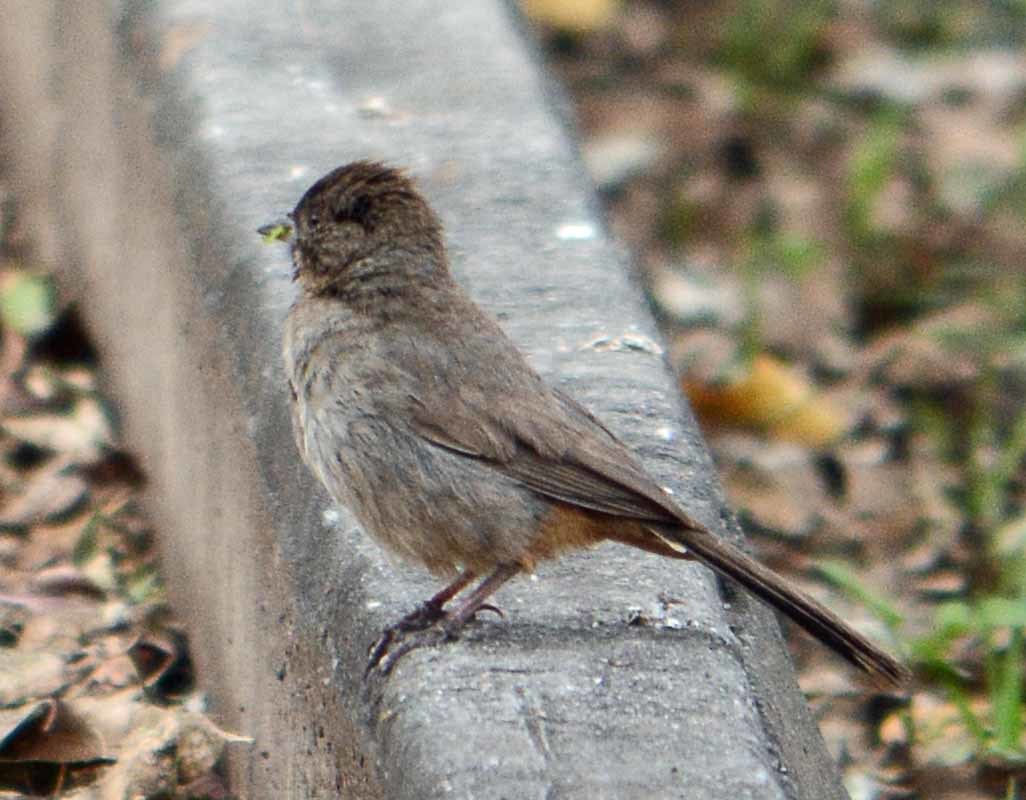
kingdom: Animalia
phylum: Chordata
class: Aves
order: Passeriformes
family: Passerellidae
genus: Melozone
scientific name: Melozone fusca
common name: Canyon towhee
